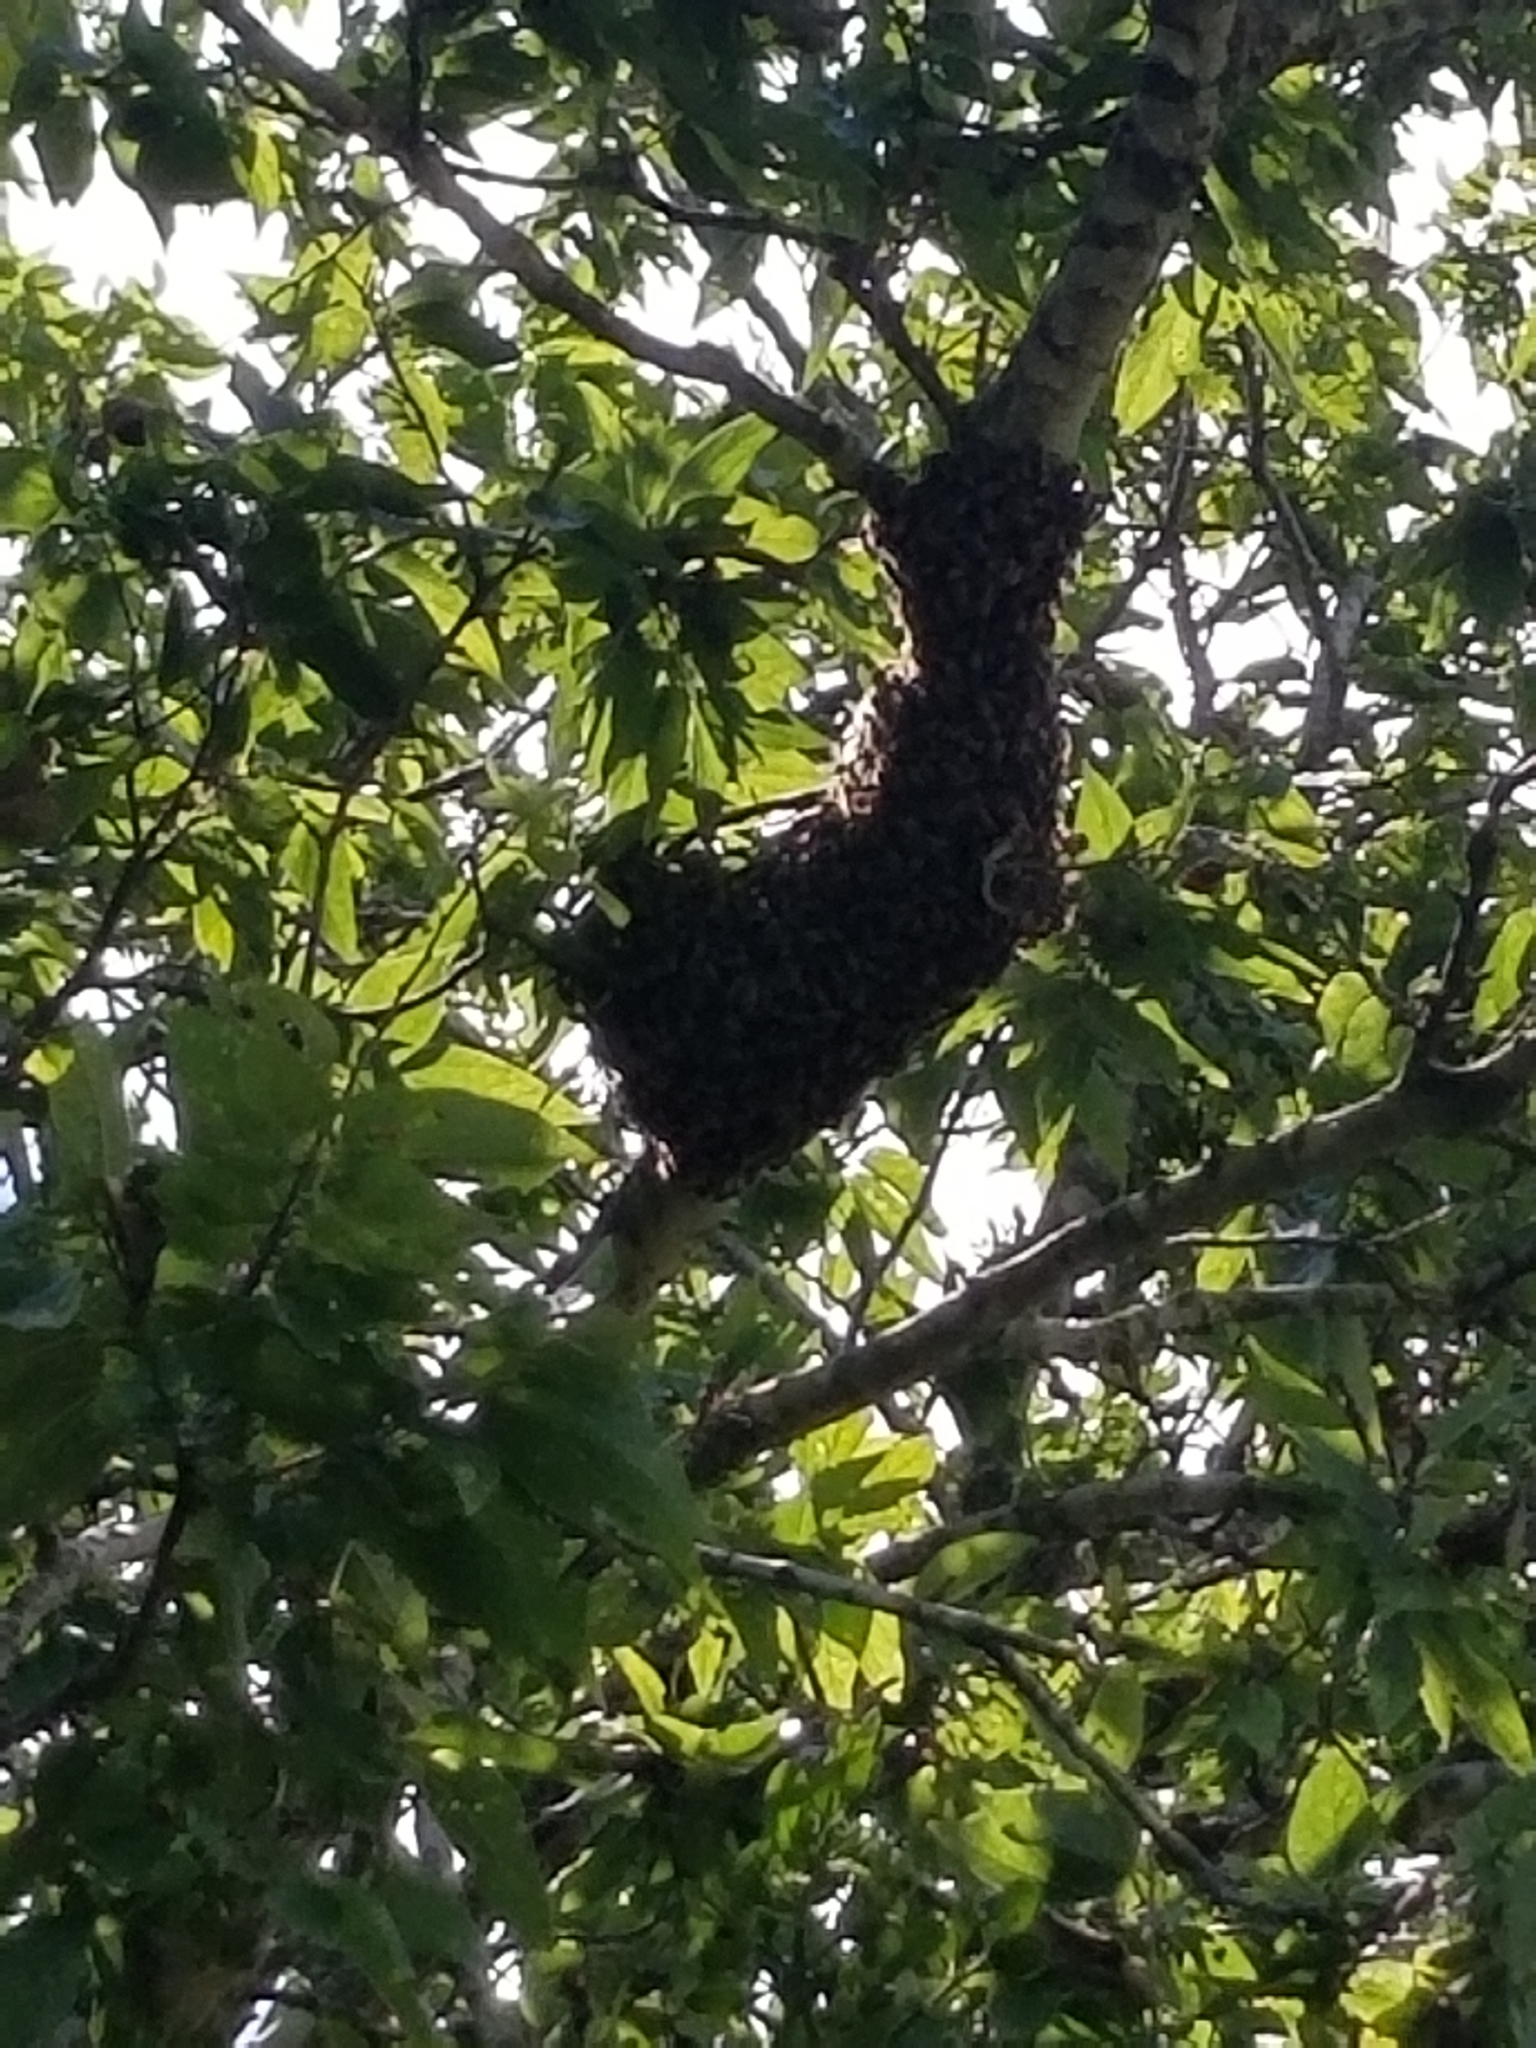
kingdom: Animalia
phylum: Arthropoda
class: Insecta
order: Hymenoptera
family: Apidae
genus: Apis
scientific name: Apis mellifera
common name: Honey bee
